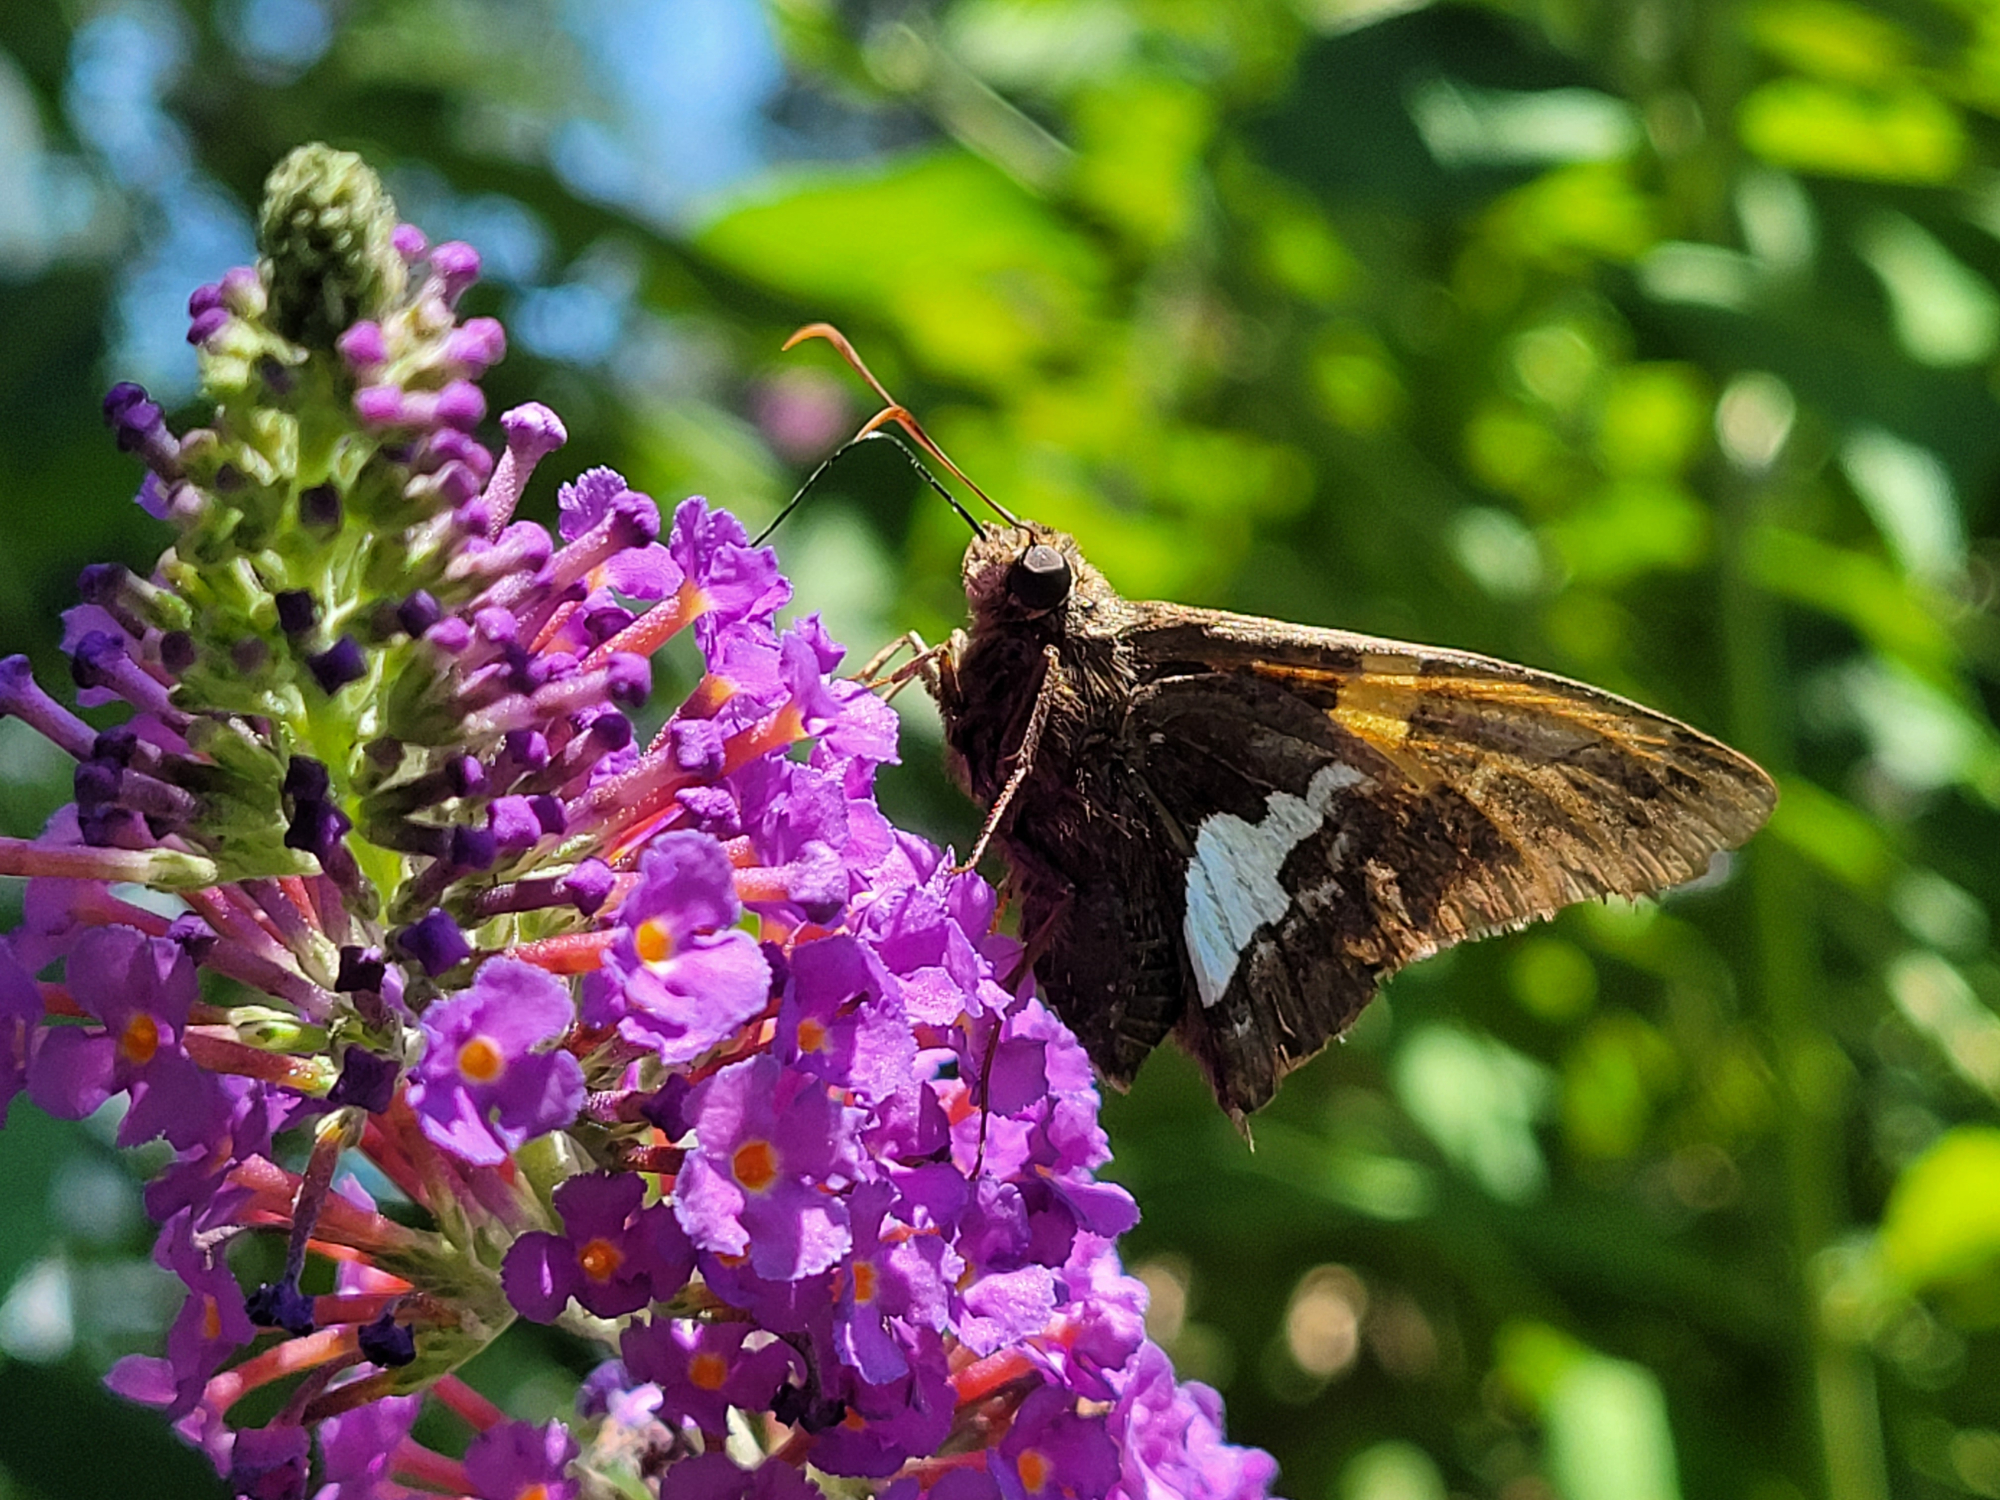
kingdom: Animalia
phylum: Arthropoda
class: Insecta
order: Lepidoptera
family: Hesperiidae
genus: Epargyreus
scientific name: Epargyreus clarus
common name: Silver-spotted skipper
